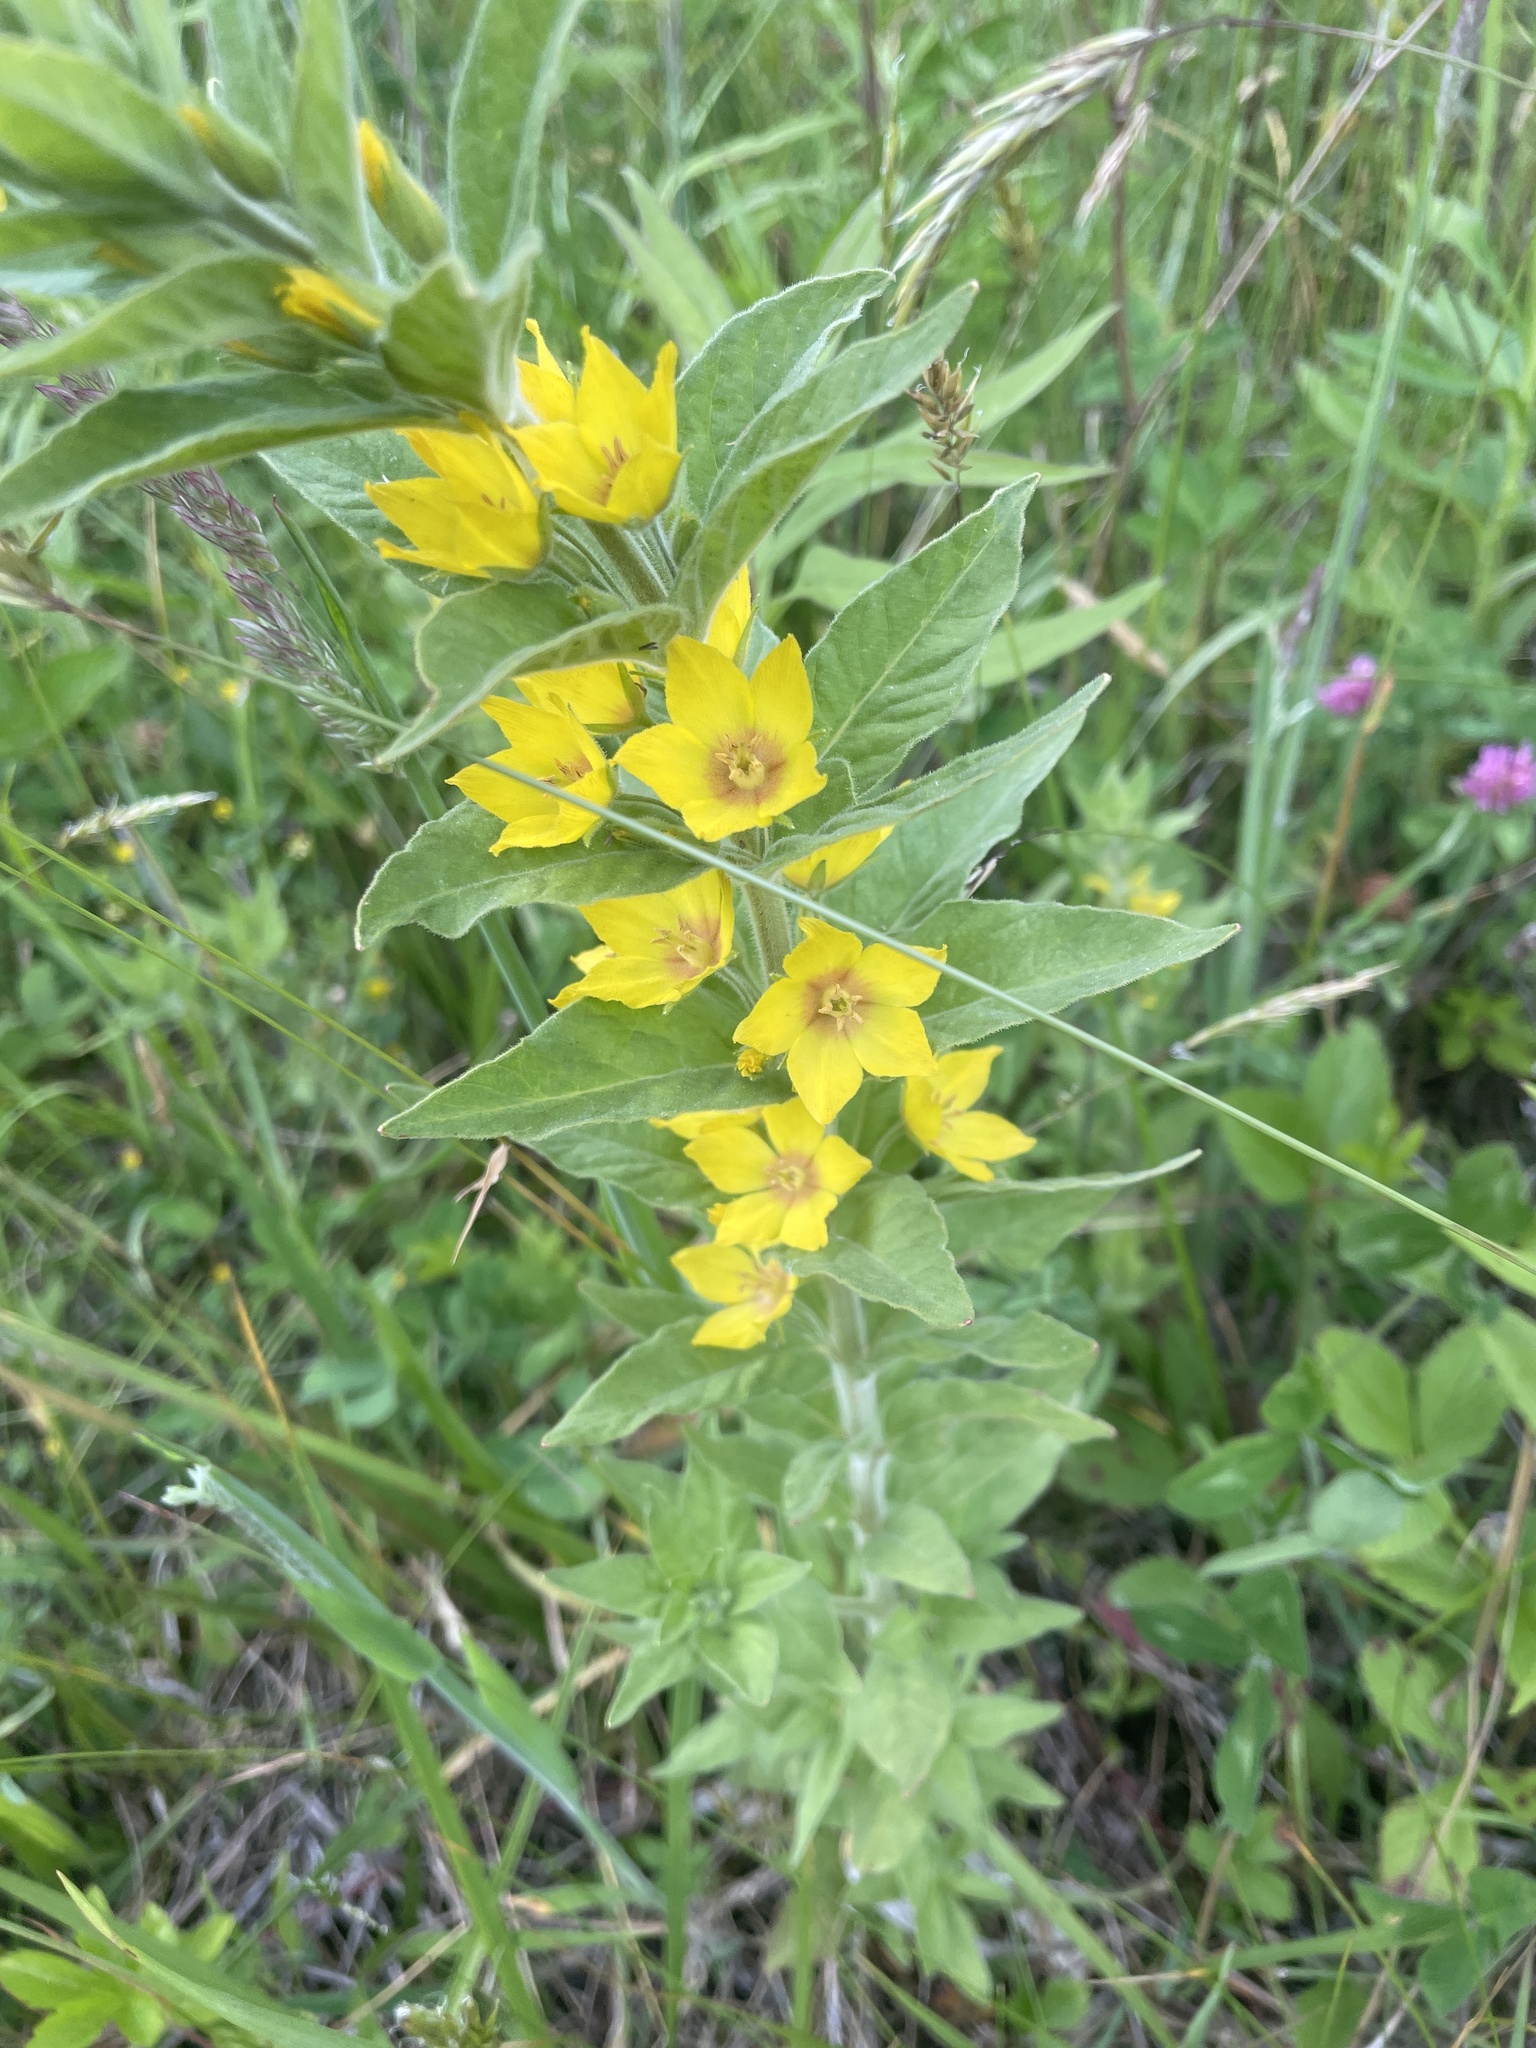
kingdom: Plantae
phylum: Tracheophyta
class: Magnoliopsida
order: Ericales
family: Primulaceae
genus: Lysimachia
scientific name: Lysimachia punctata
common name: Dotted loosestrife
